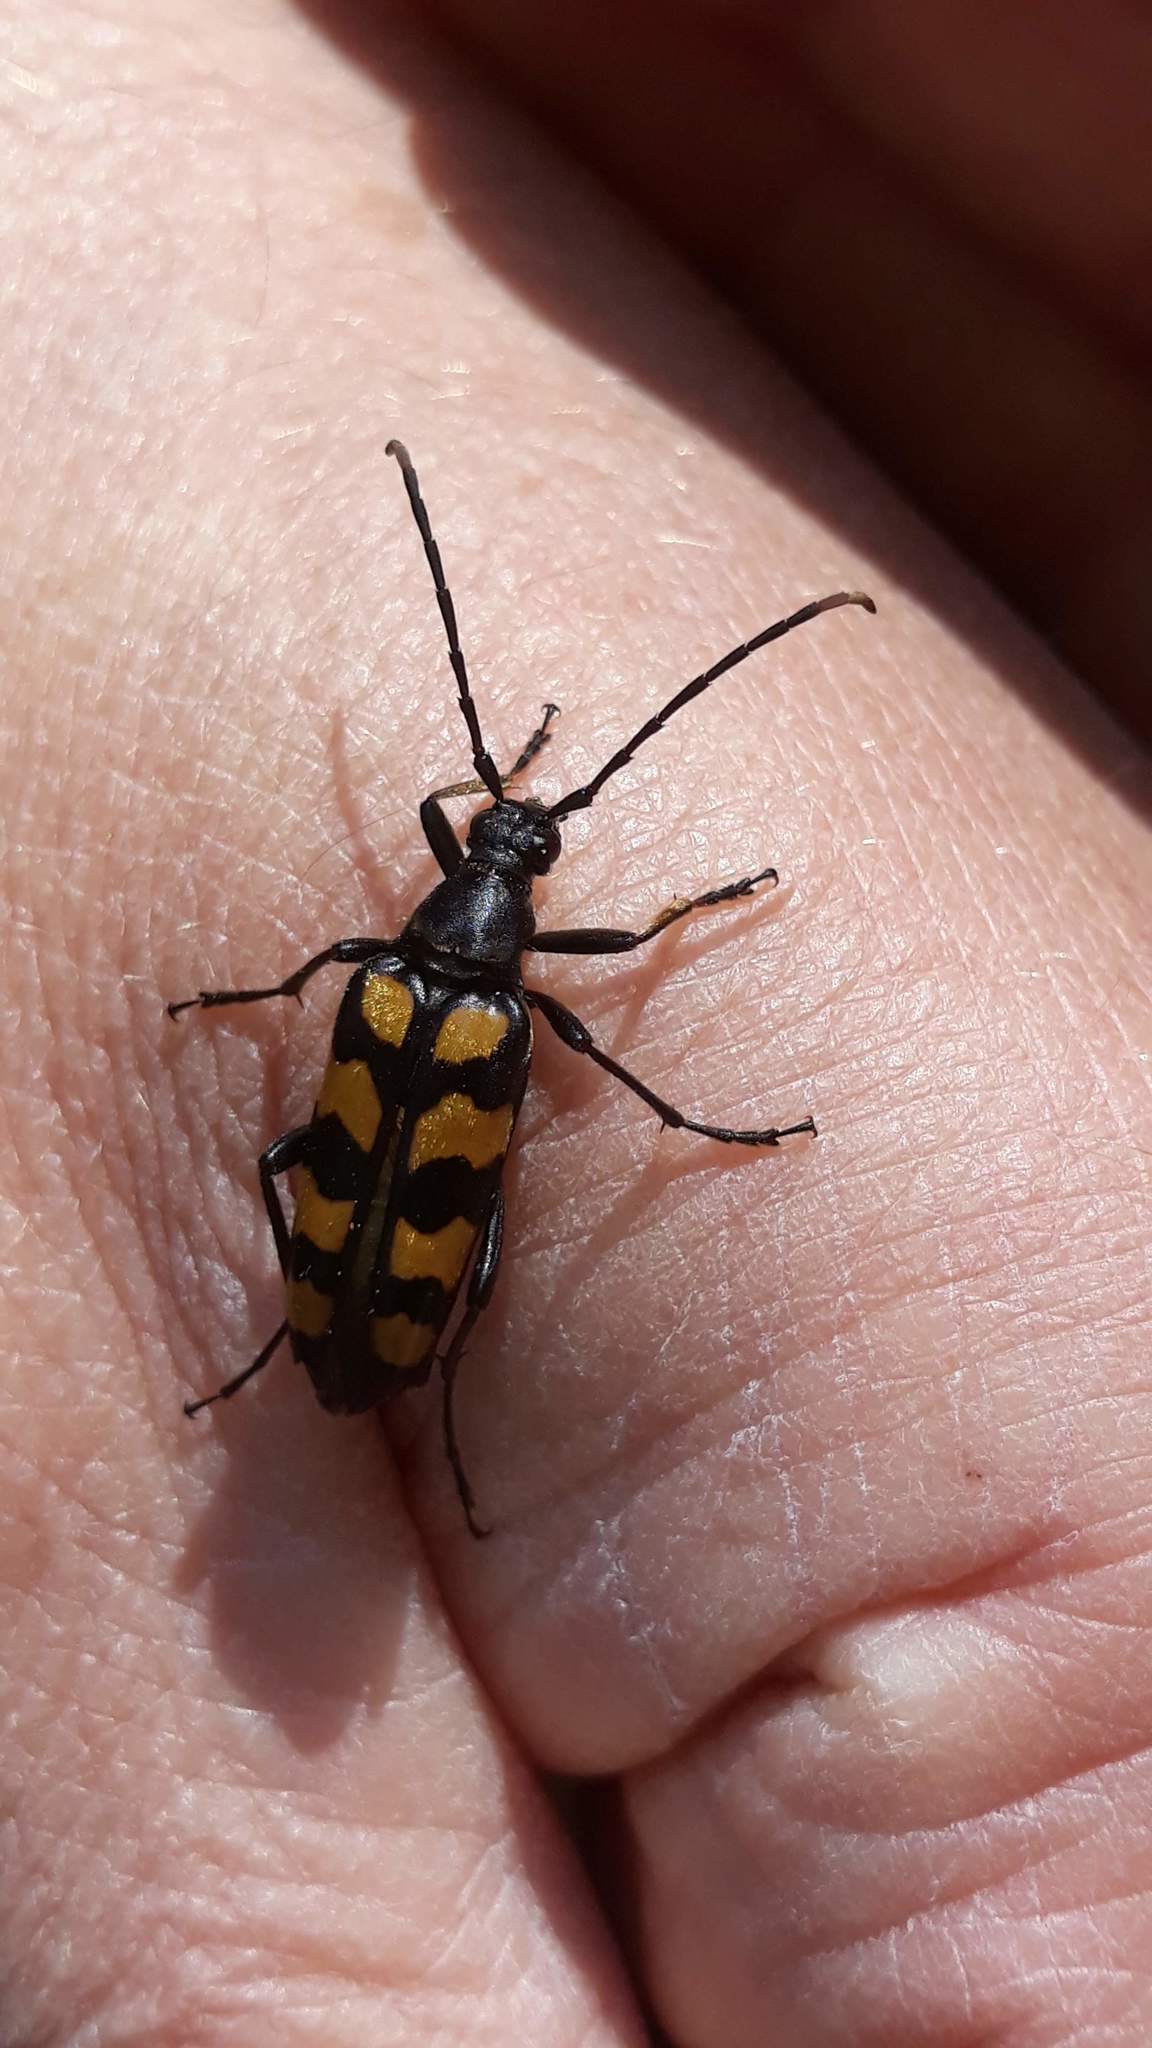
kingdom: Animalia
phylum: Arthropoda
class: Insecta
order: Coleoptera
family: Cerambycidae
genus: Leptura
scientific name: Leptura quadrifasciata
